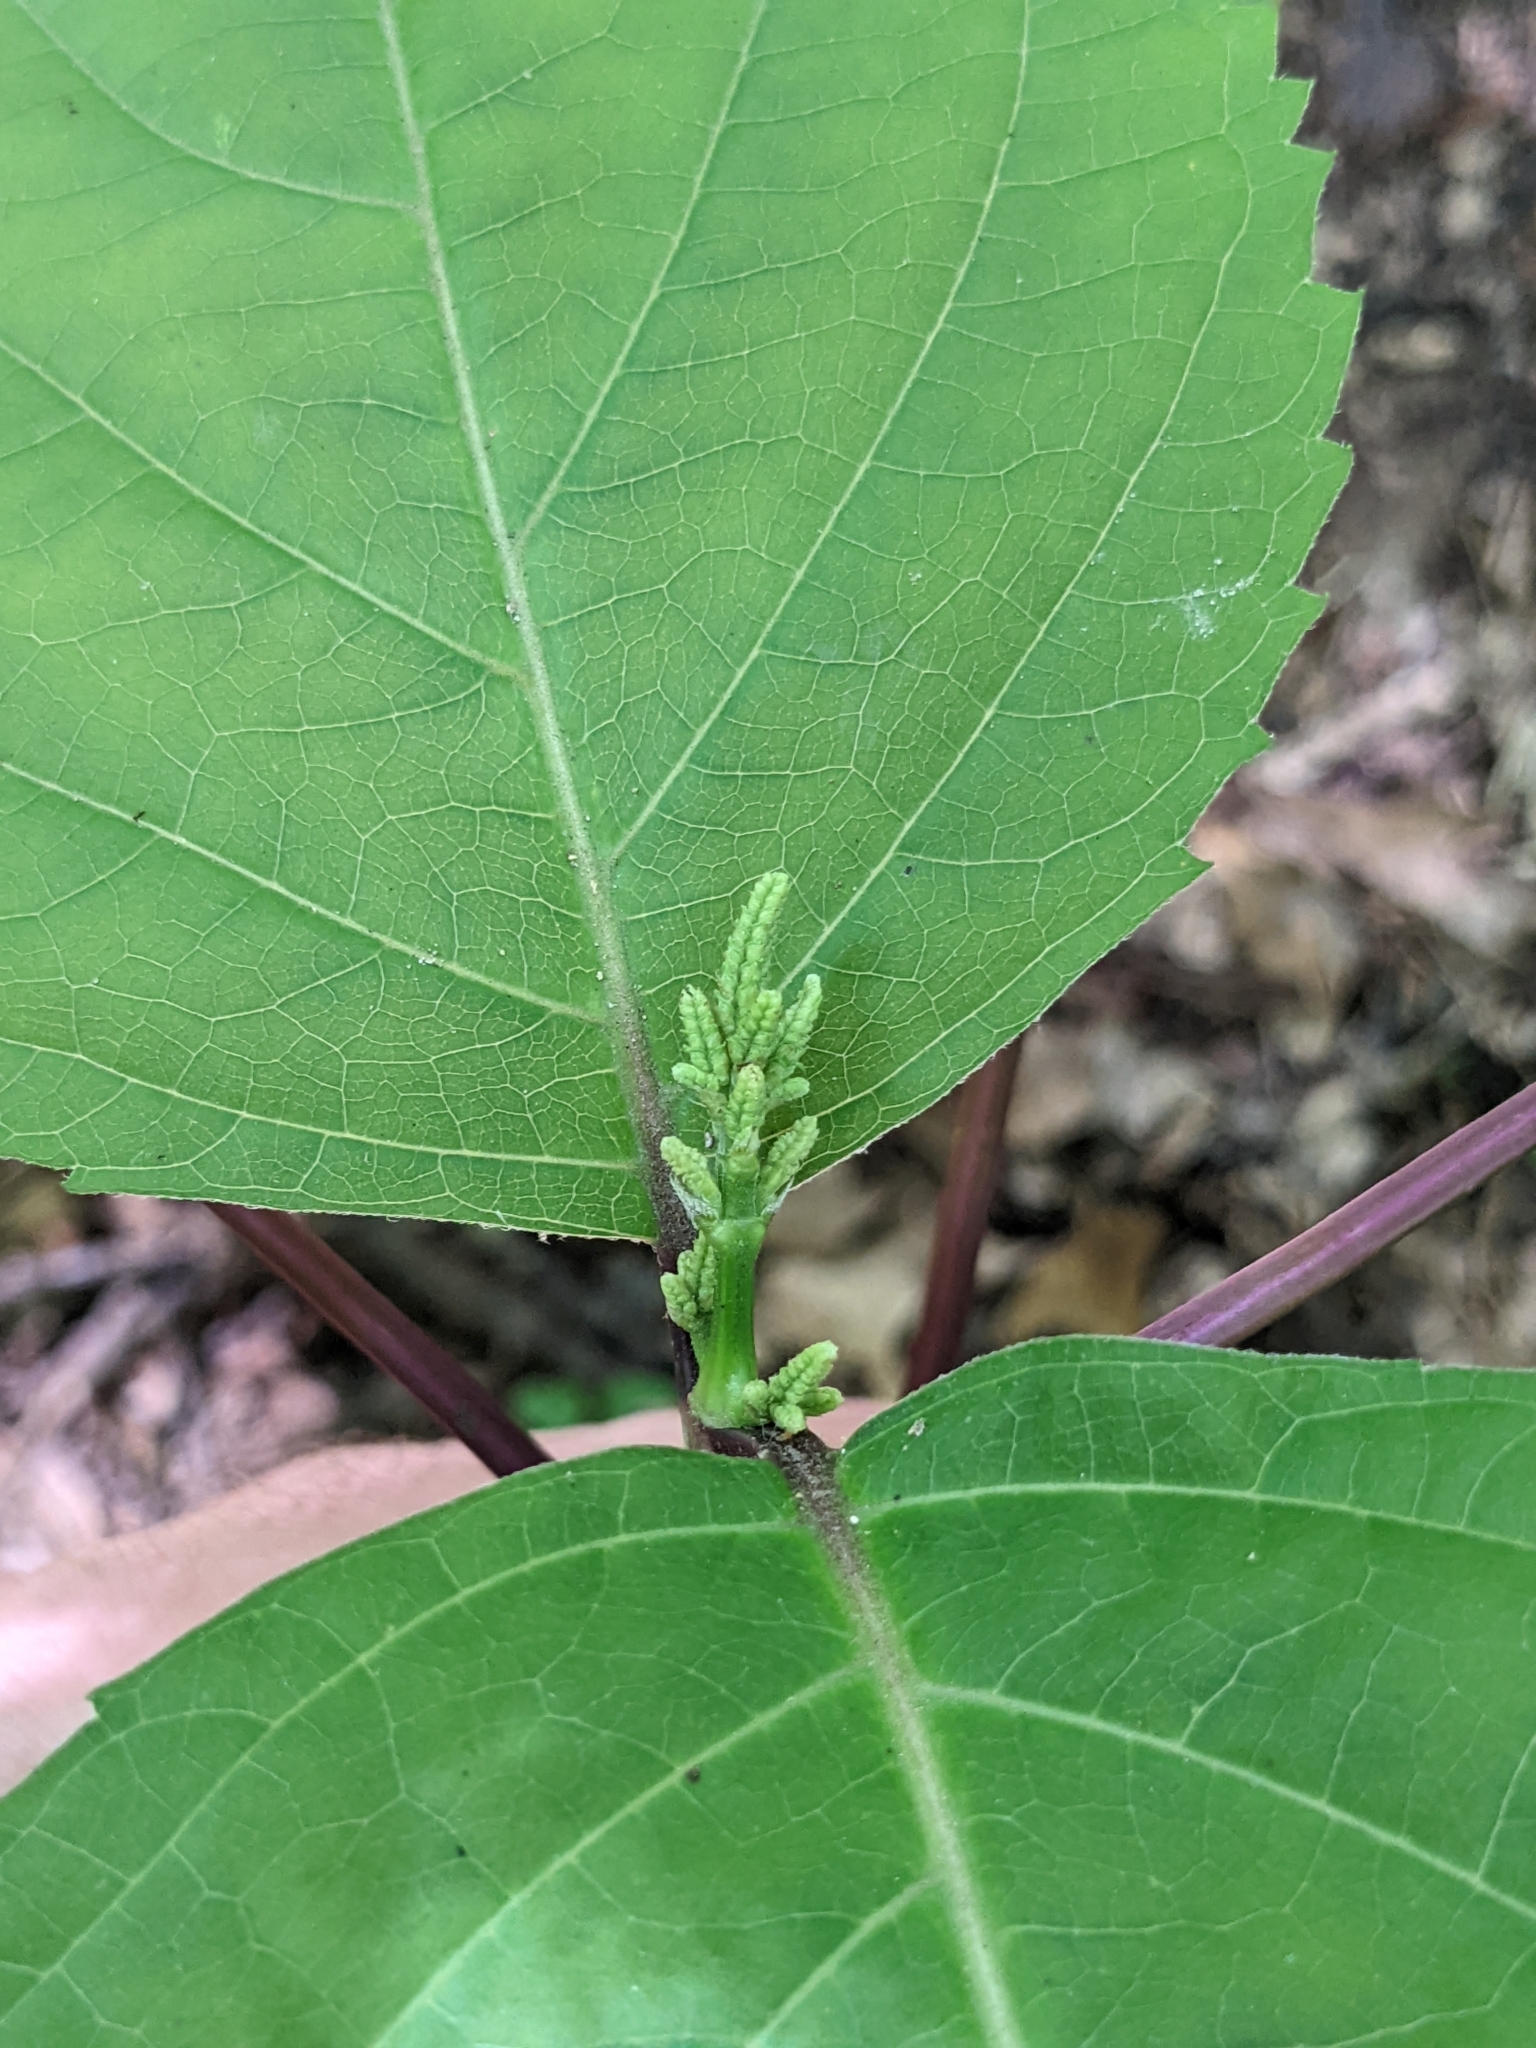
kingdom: Plantae
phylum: Tracheophyta
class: Magnoliopsida
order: Lamiales
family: Lamiaceae
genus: Collinsonia
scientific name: Collinsonia canadensis
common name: Northern horsebalm
